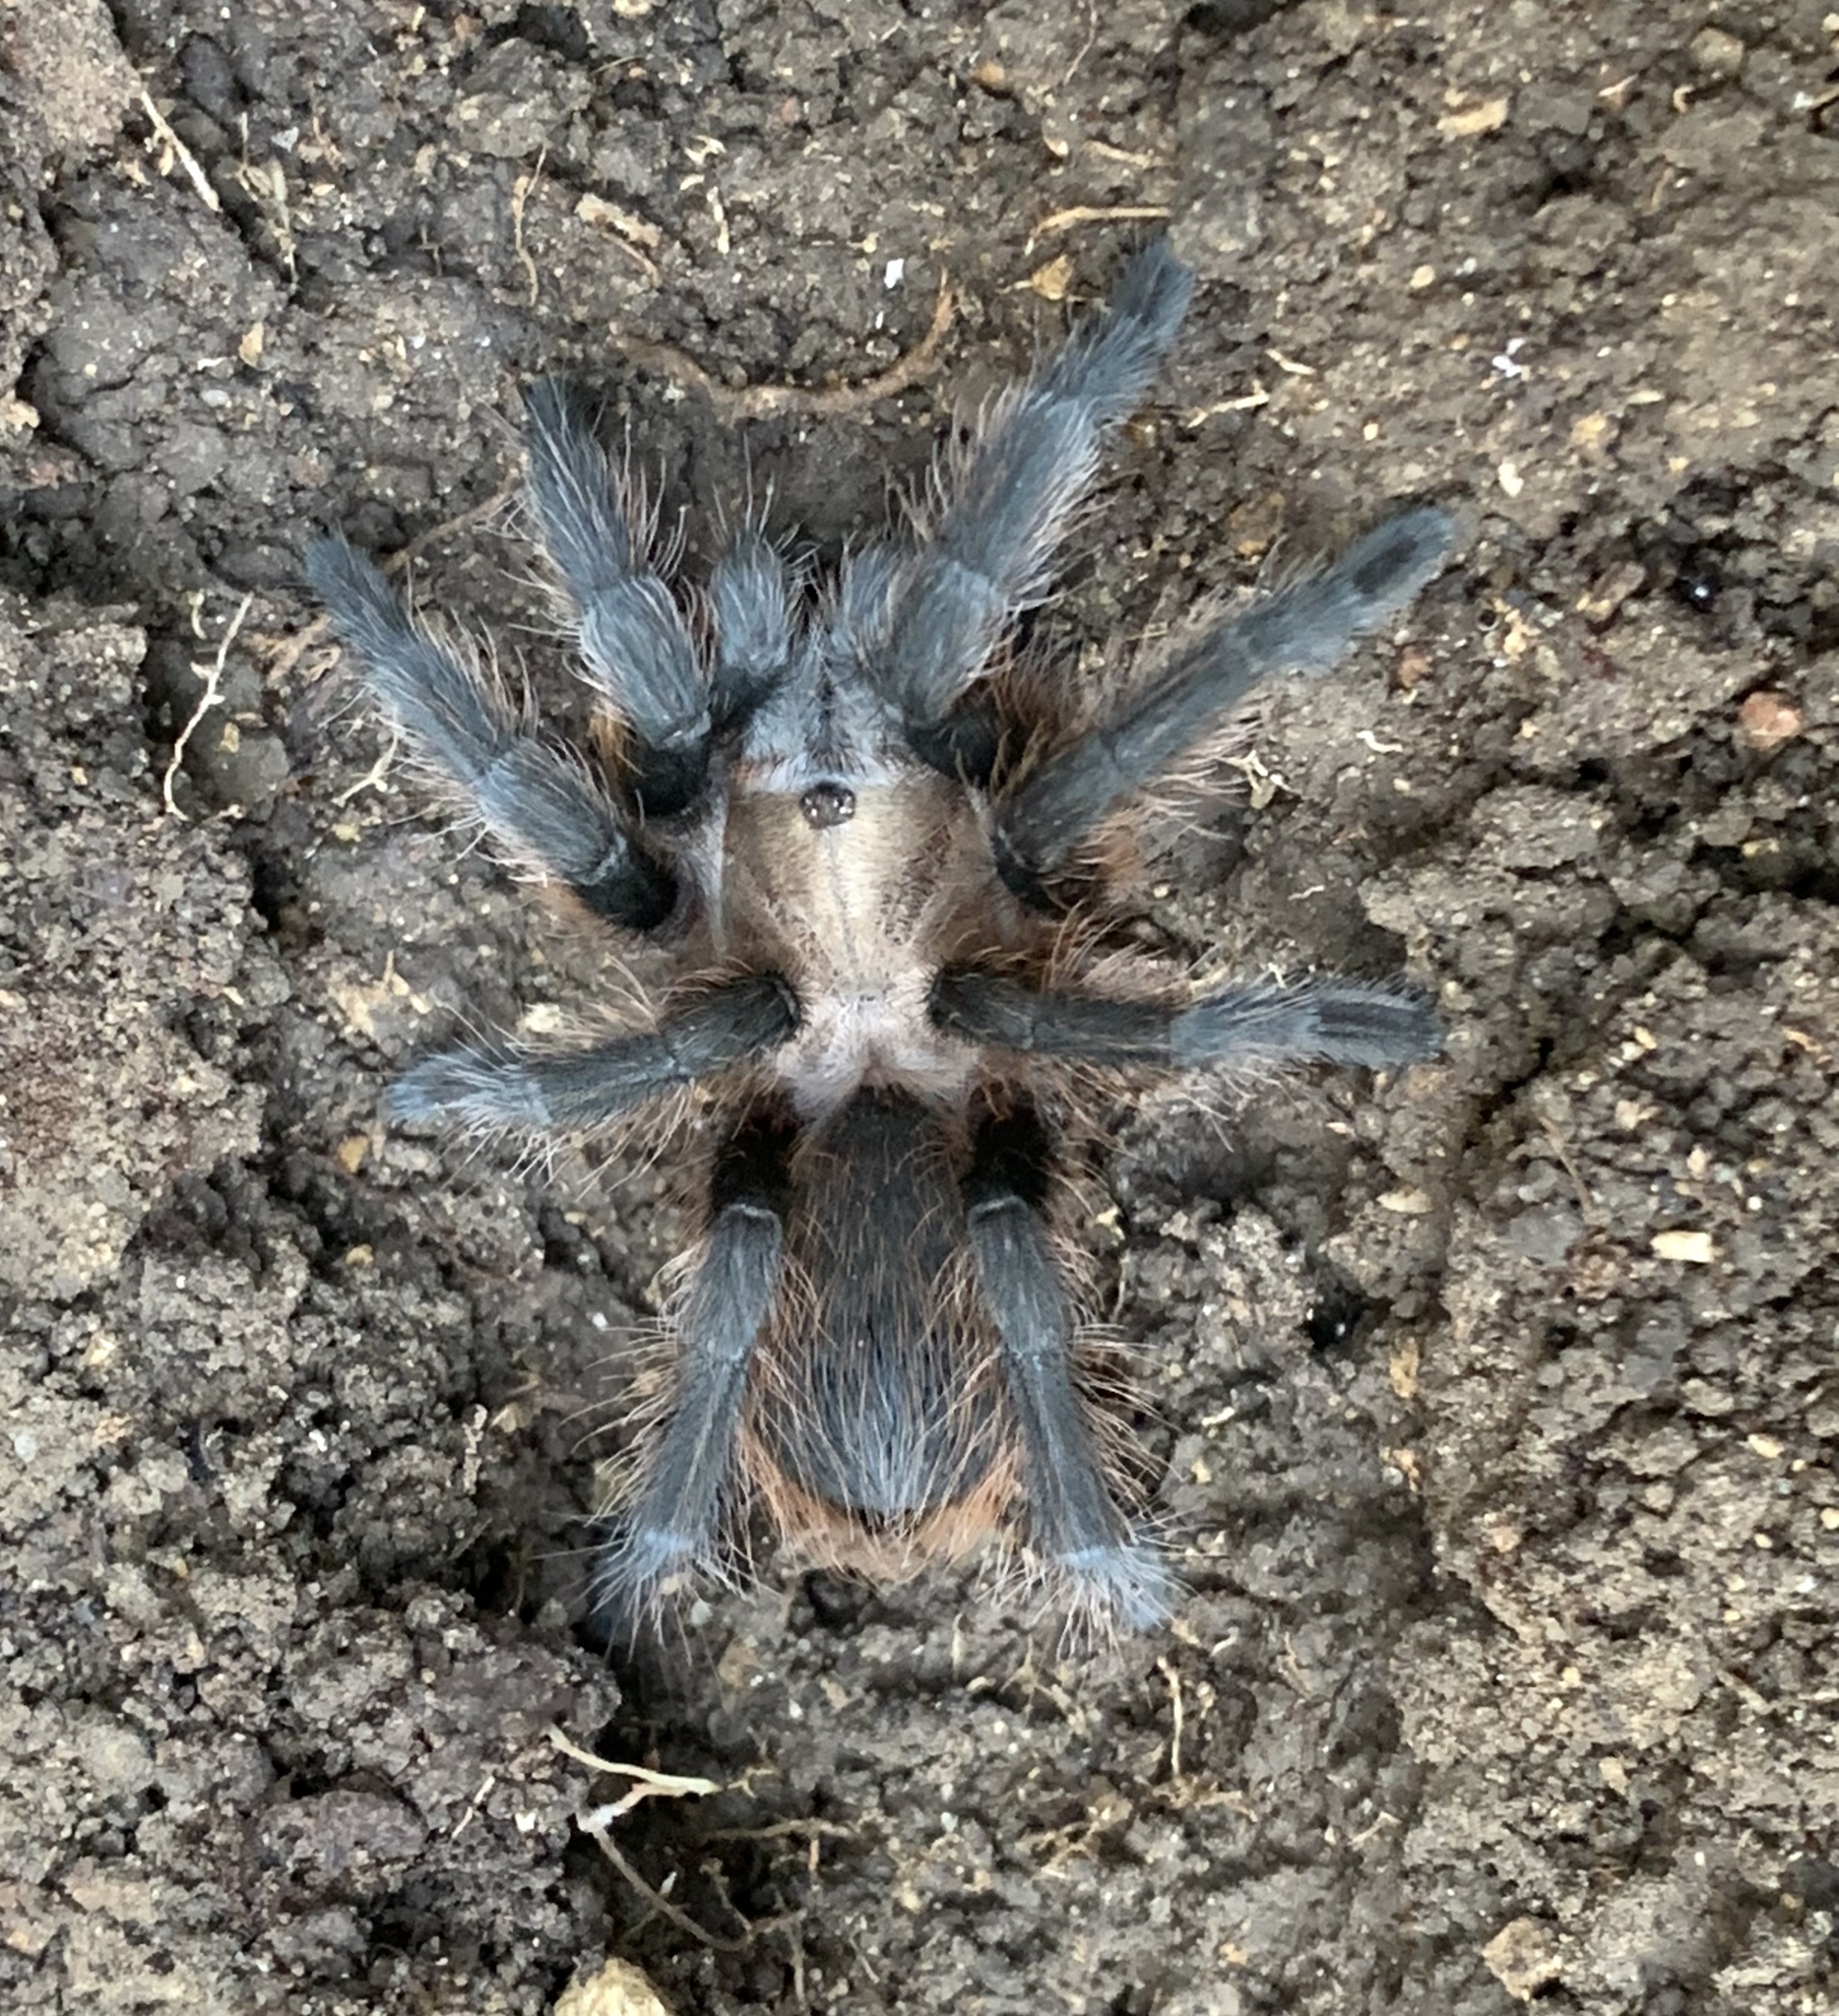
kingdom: Animalia
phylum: Arthropoda
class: Arachnida
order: Araneae
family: Theraphosidae
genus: Aphonopelma
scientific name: Aphonopelma hentzi
